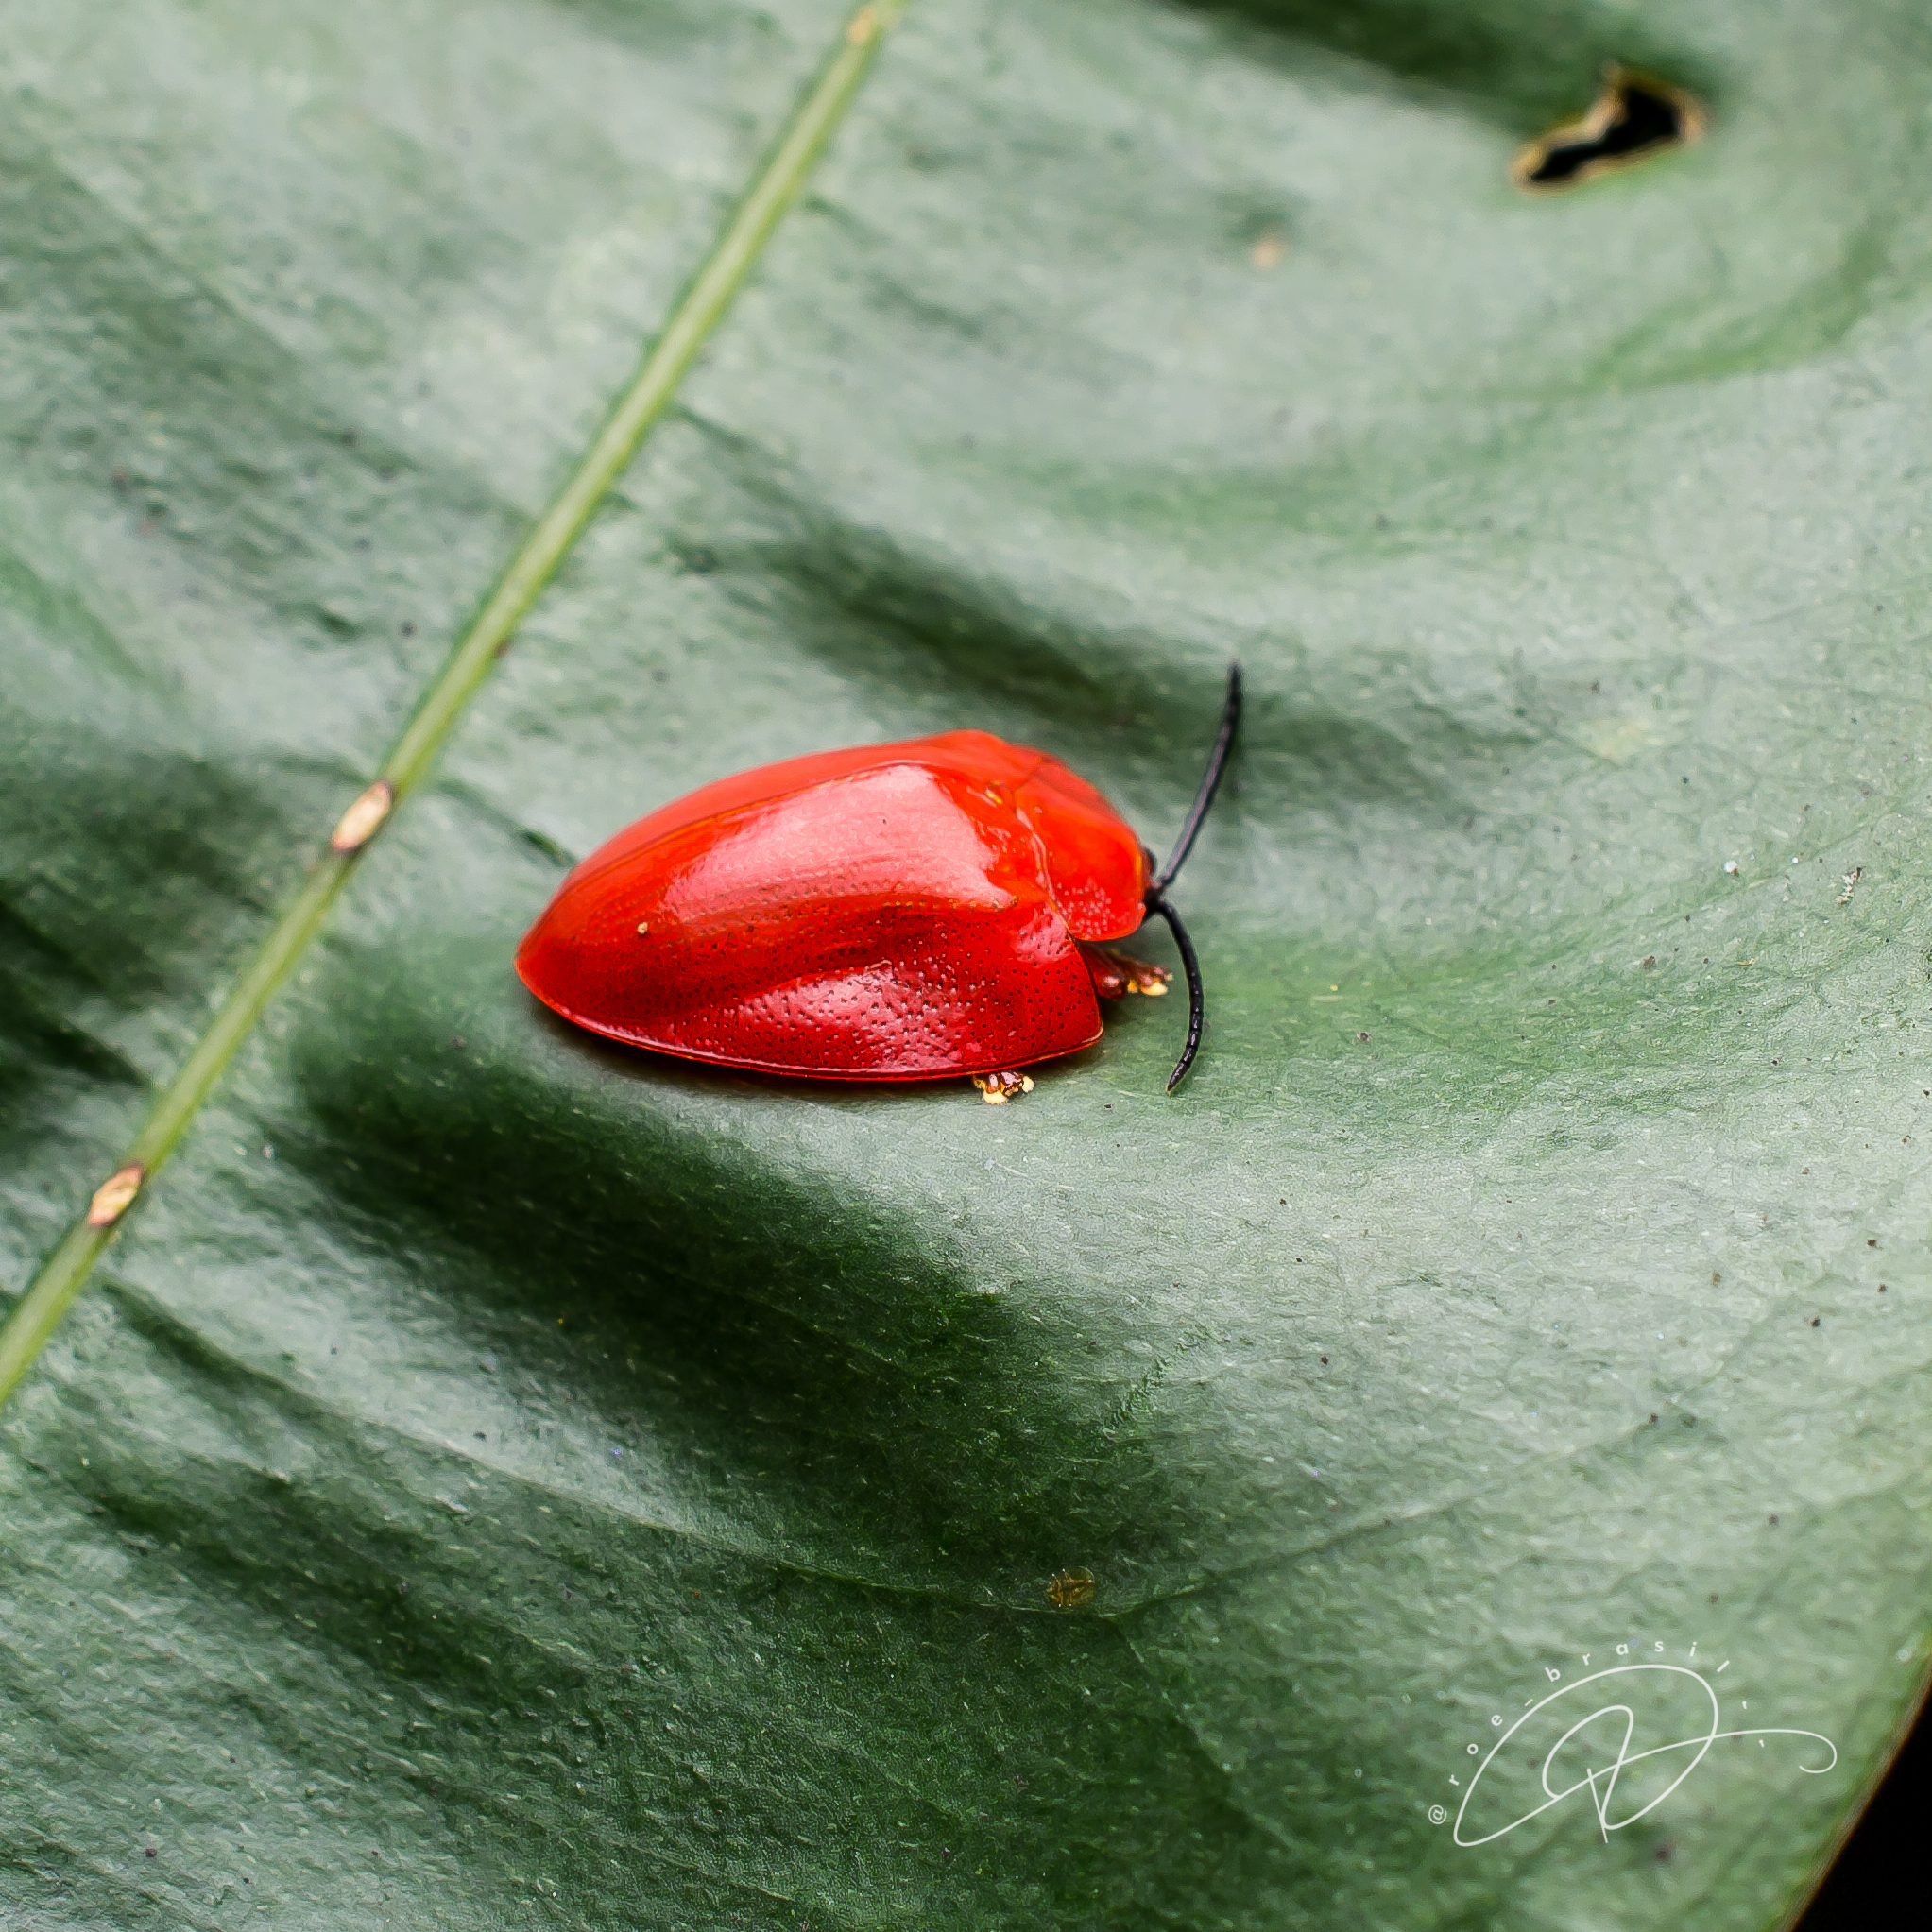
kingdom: Animalia
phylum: Arthropoda
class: Insecta
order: Coleoptera
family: Chrysomelidae
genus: Calyptocephala
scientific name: Calyptocephala nigricornis
